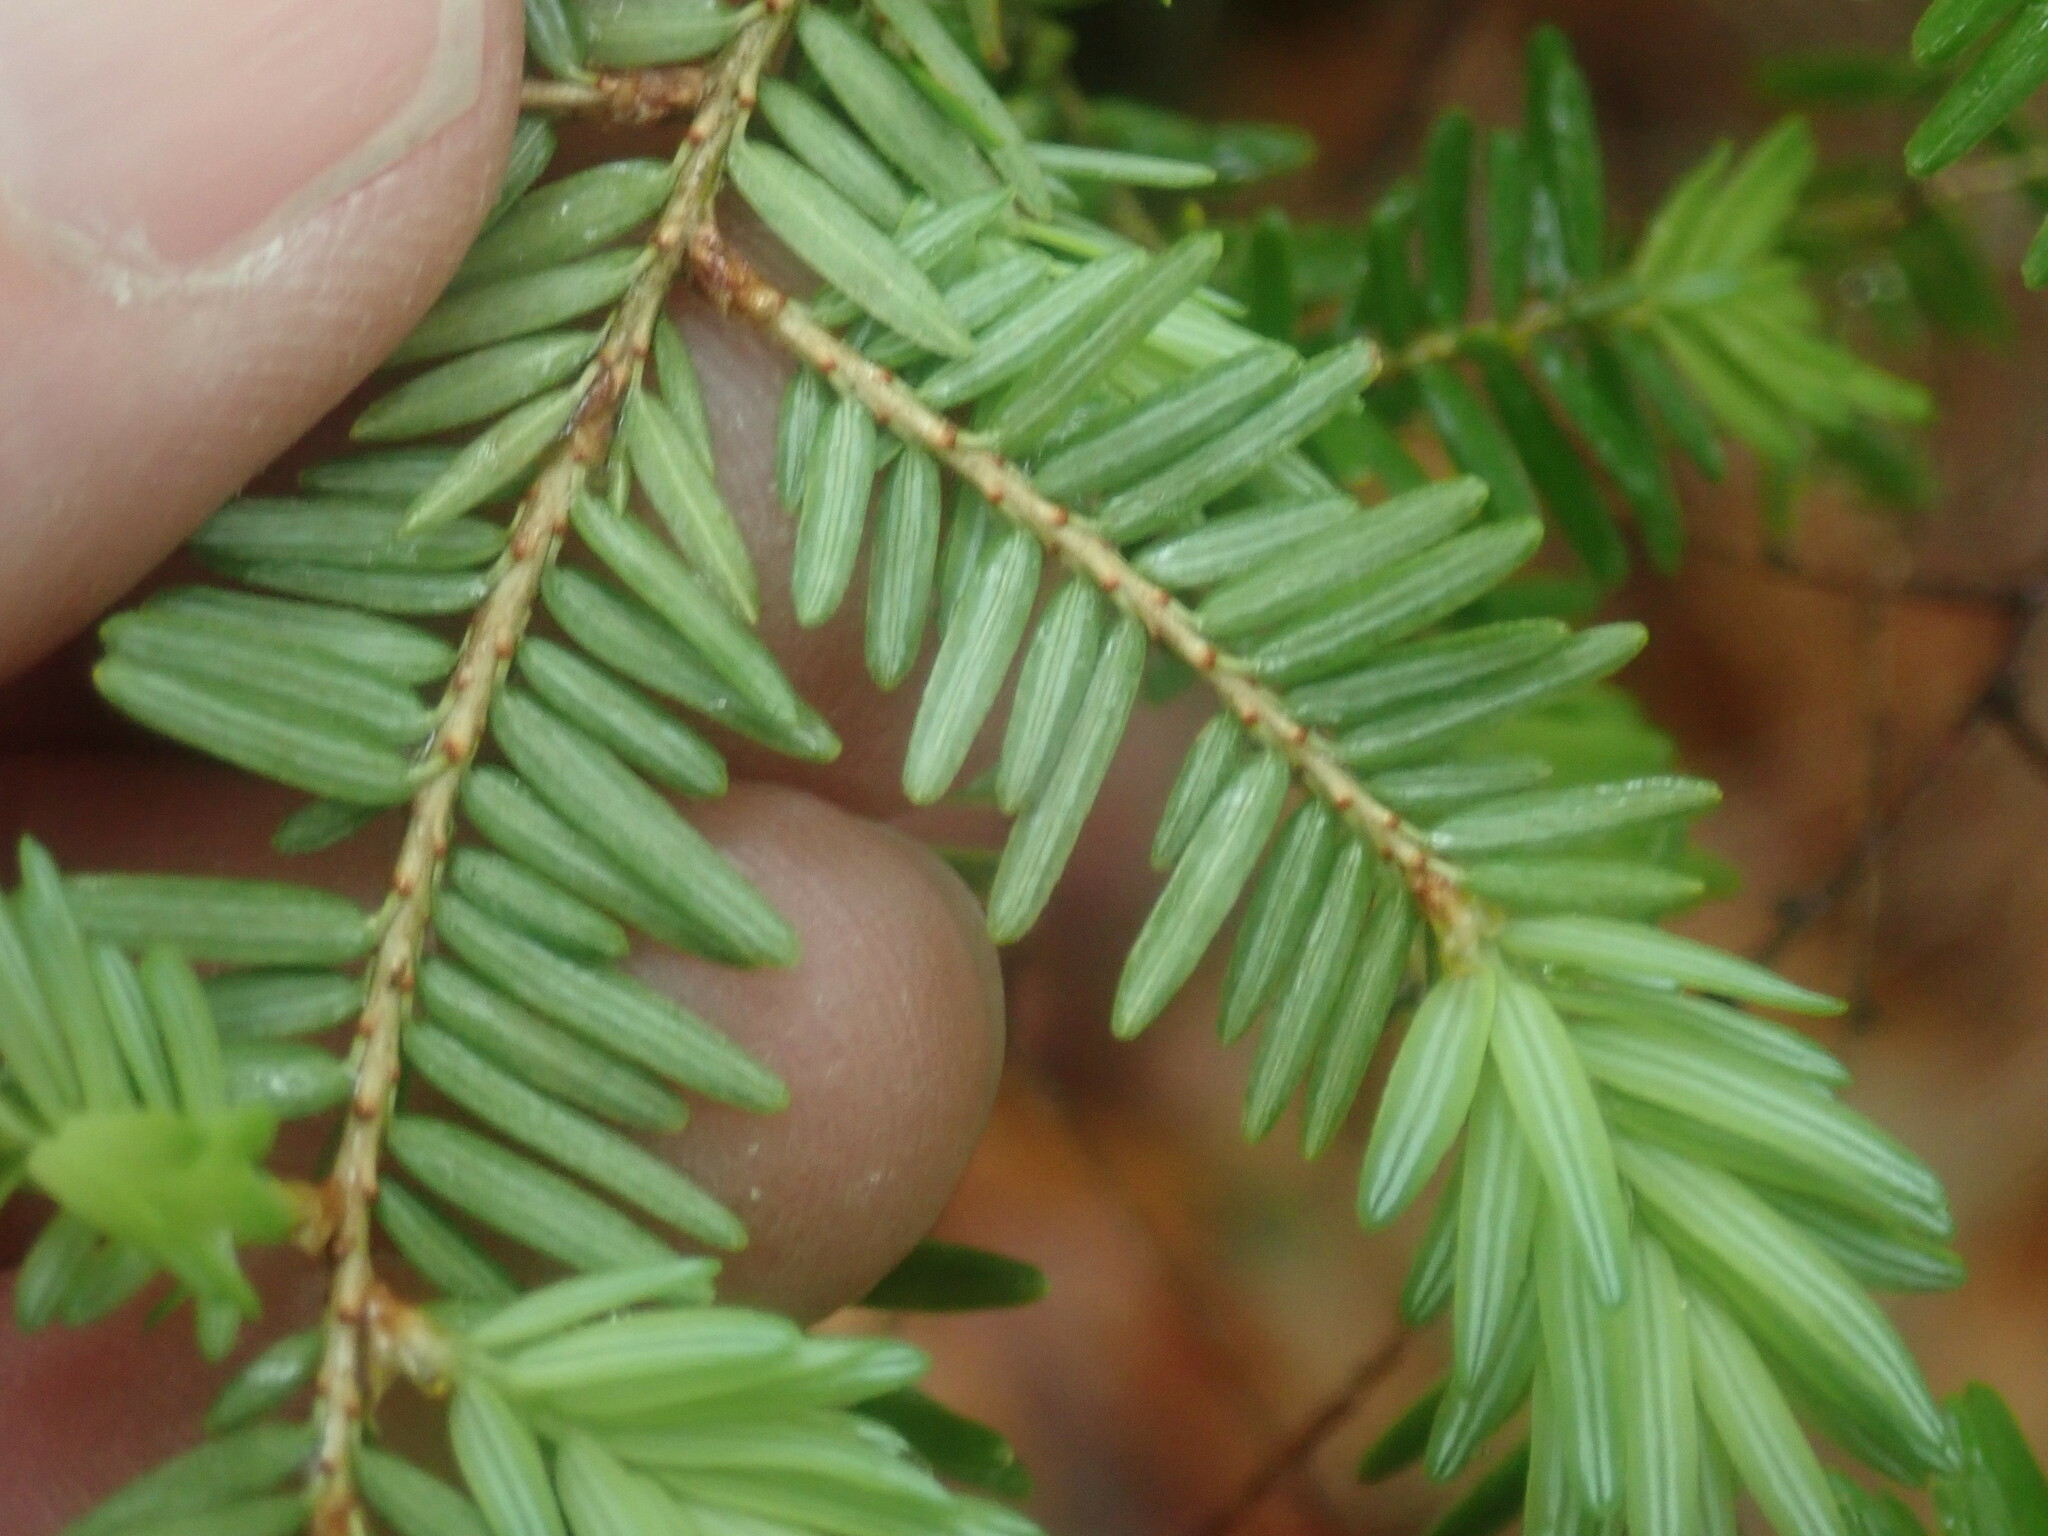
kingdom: Plantae
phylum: Tracheophyta
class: Pinopsida
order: Pinales
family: Pinaceae
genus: Tsuga
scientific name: Tsuga canadensis
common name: Eastern hemlock
